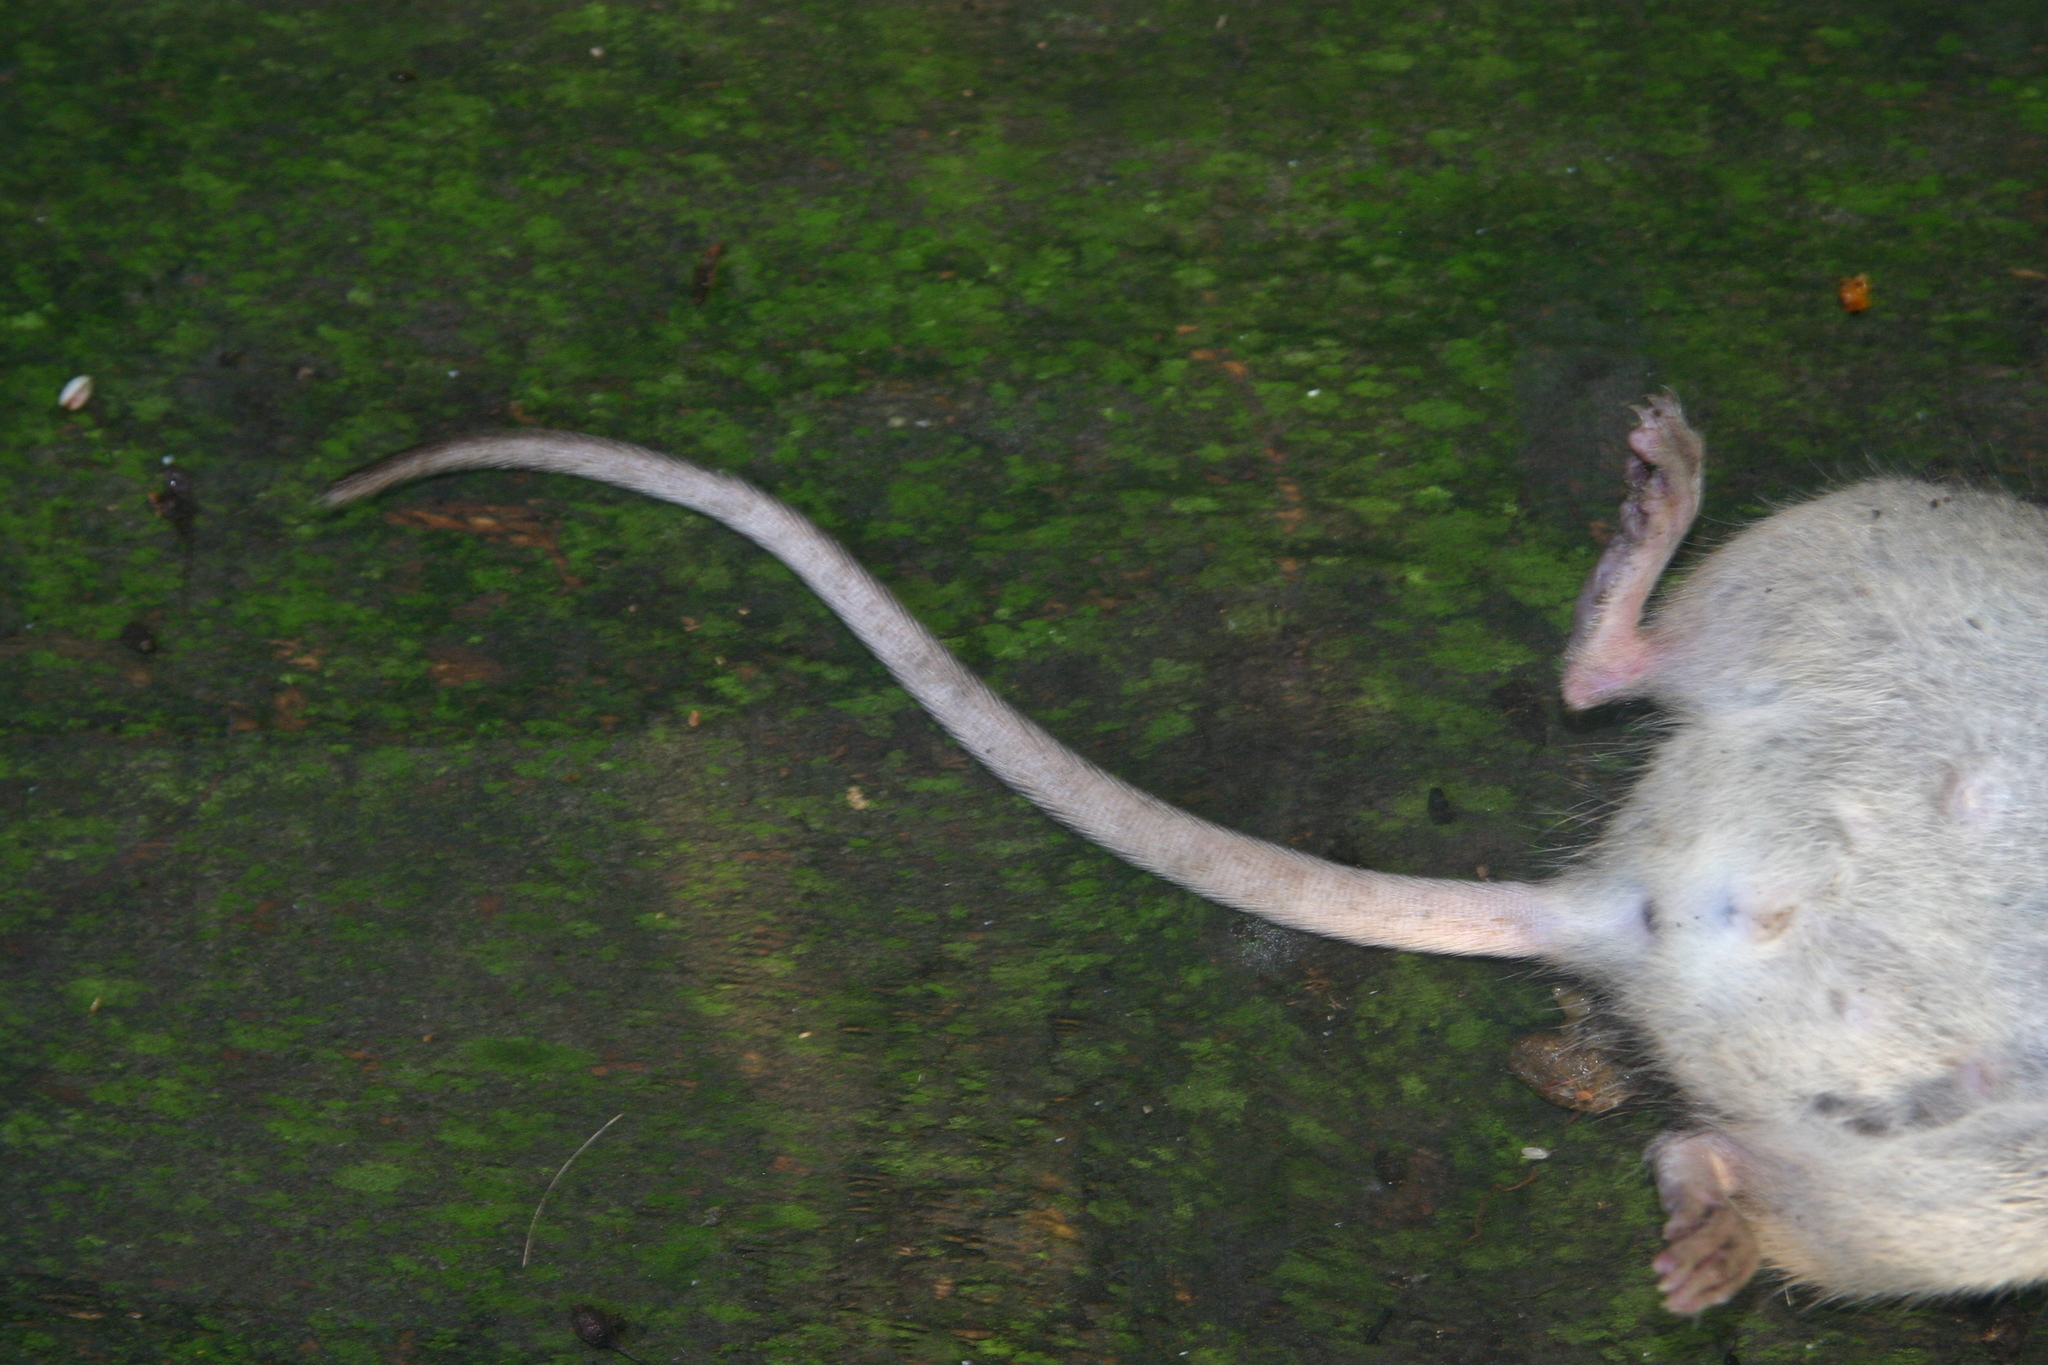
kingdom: Animalia
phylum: Chordata
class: Mammalia
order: Rodentia
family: Muridae
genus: Rattus
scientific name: Rattus norvegicus
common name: Brown rat
